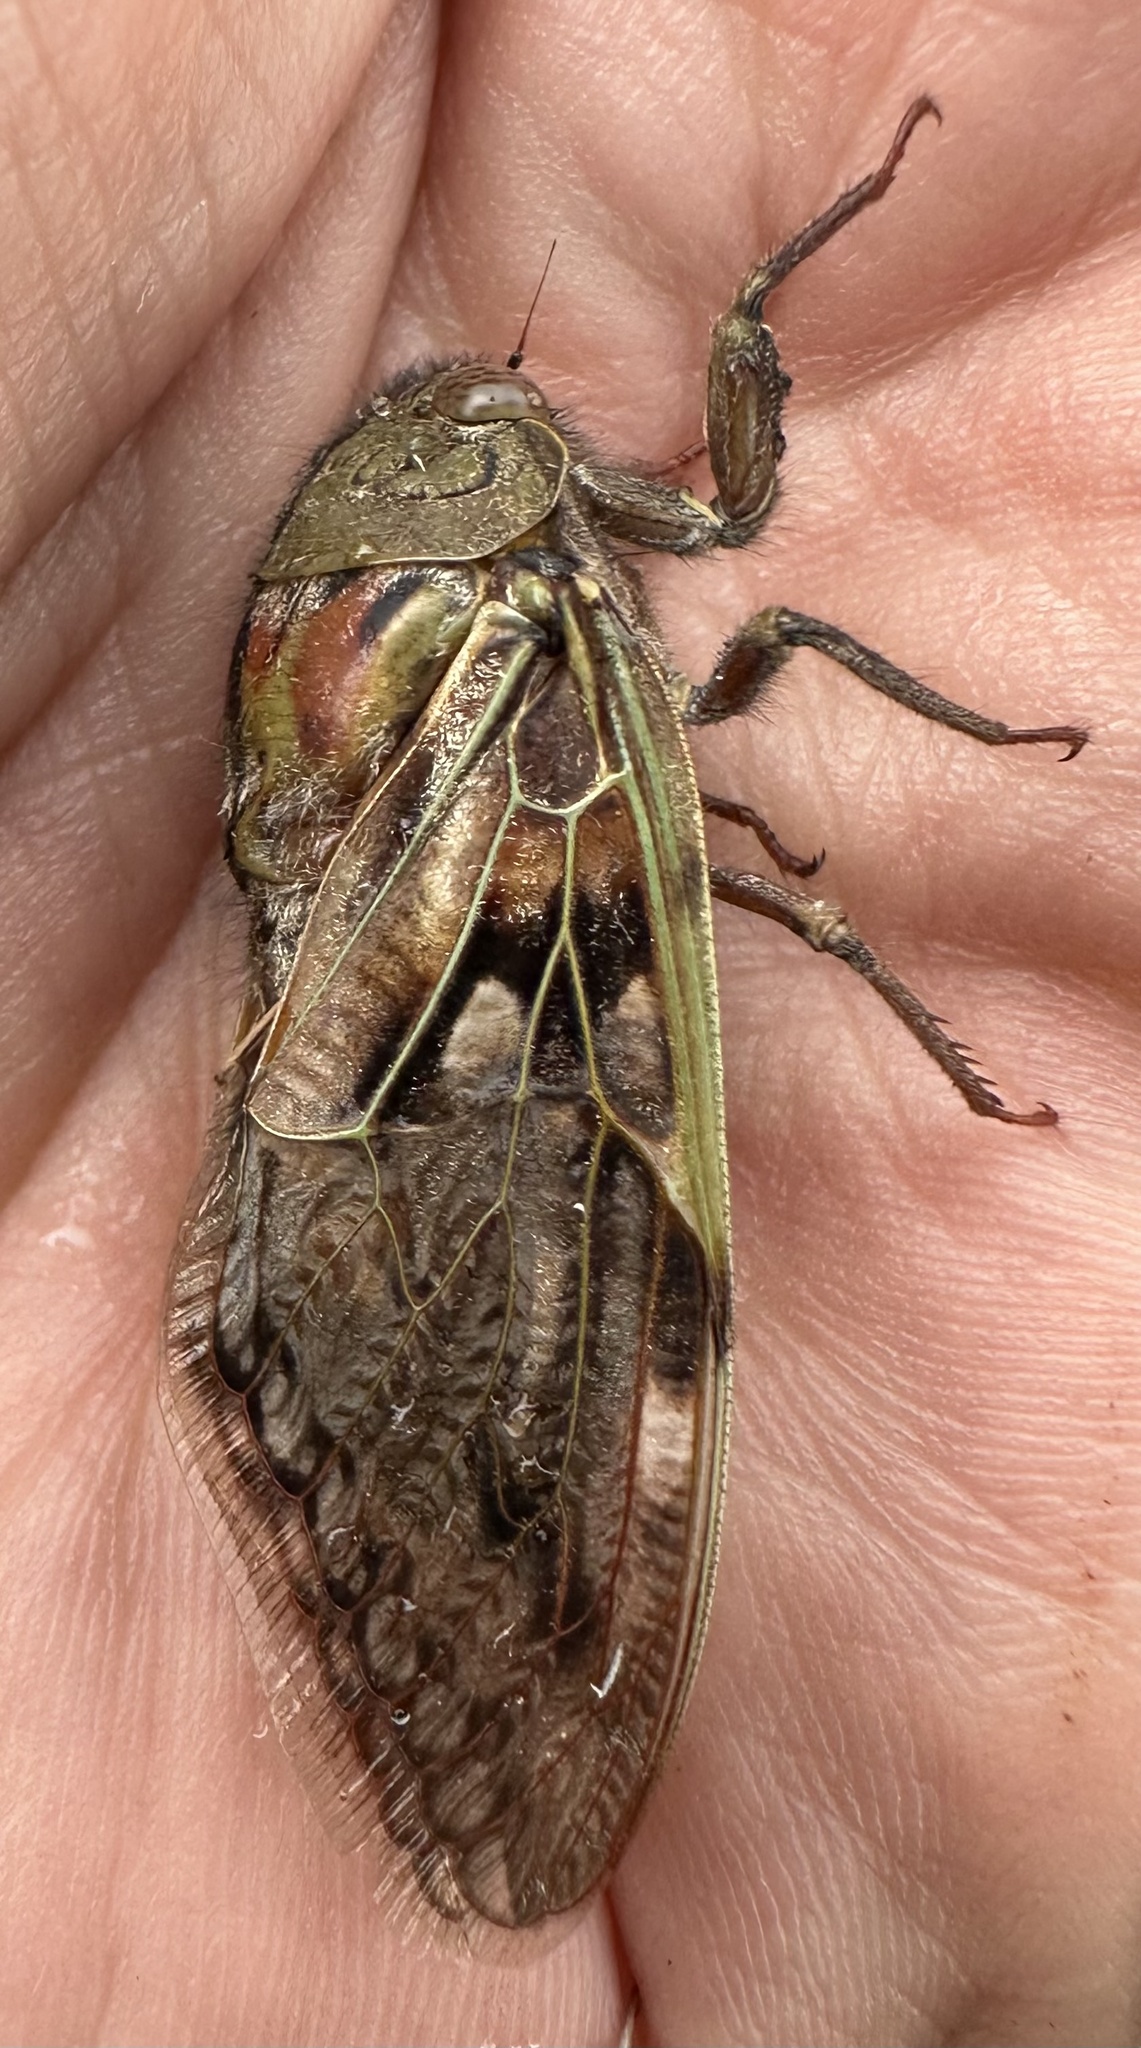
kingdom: Animalia
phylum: Arthropoda
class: Insecta
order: Hemiptera
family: Cicadidae
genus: Platypleura
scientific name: Platypleura deusta
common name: Ouhout orangewing cicada
